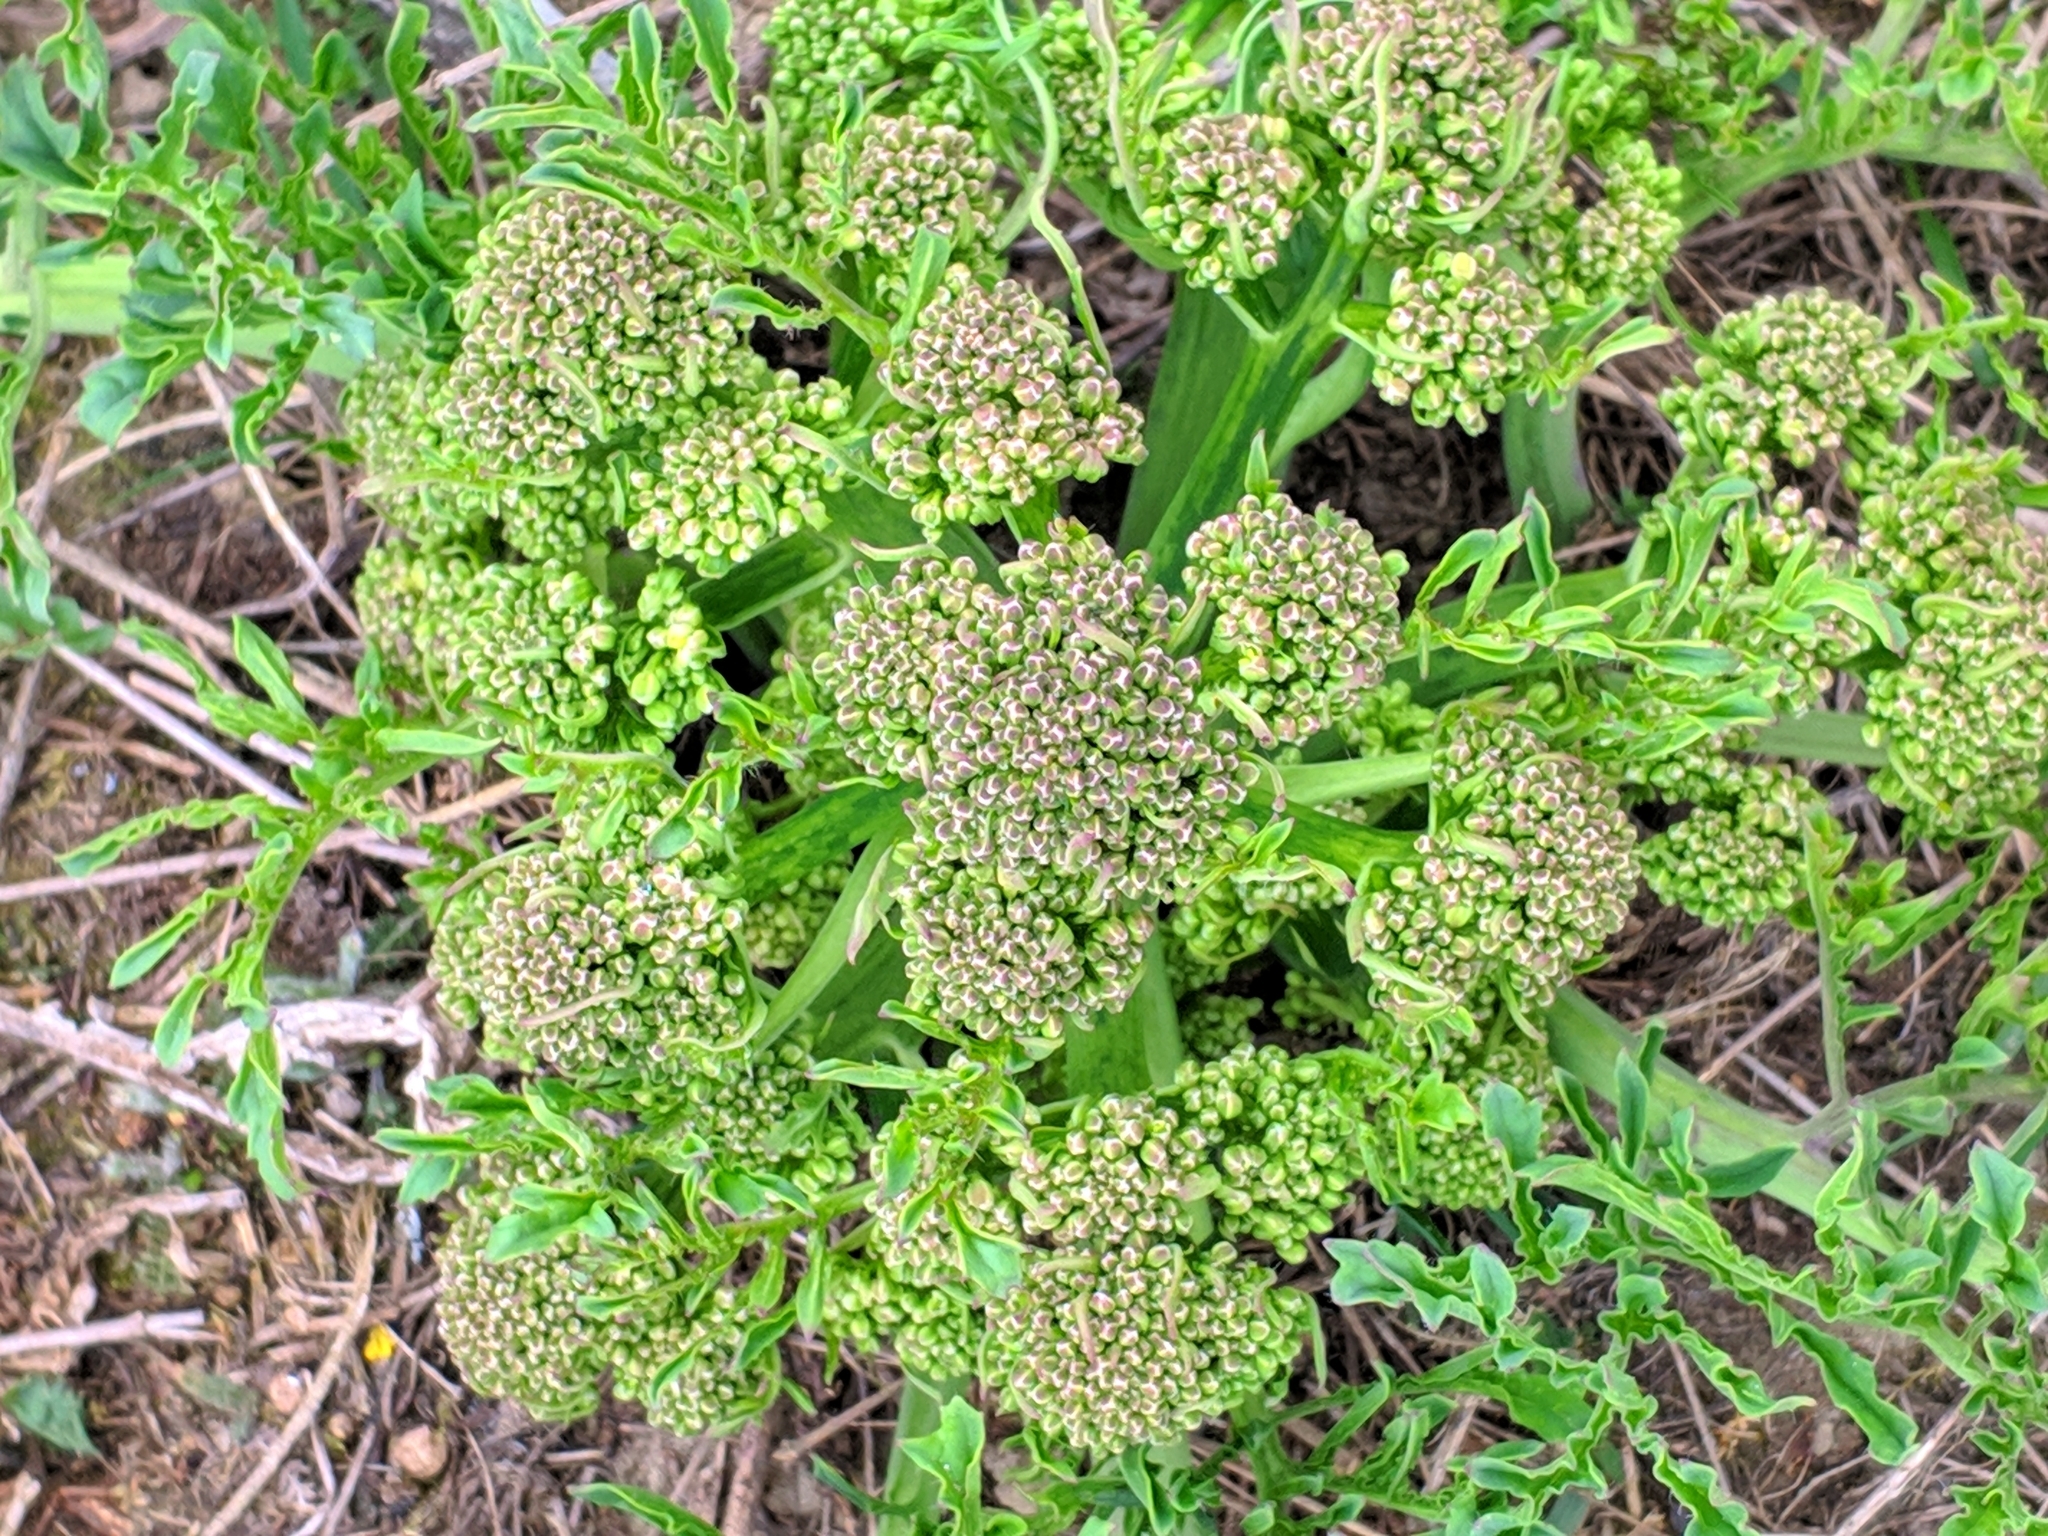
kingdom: Plantae
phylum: Tracheophyta
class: Magnoliopsida
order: Brassicales
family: Brassicaceae
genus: Crambe
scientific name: Crambe tataria
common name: Tartarian breadplant
